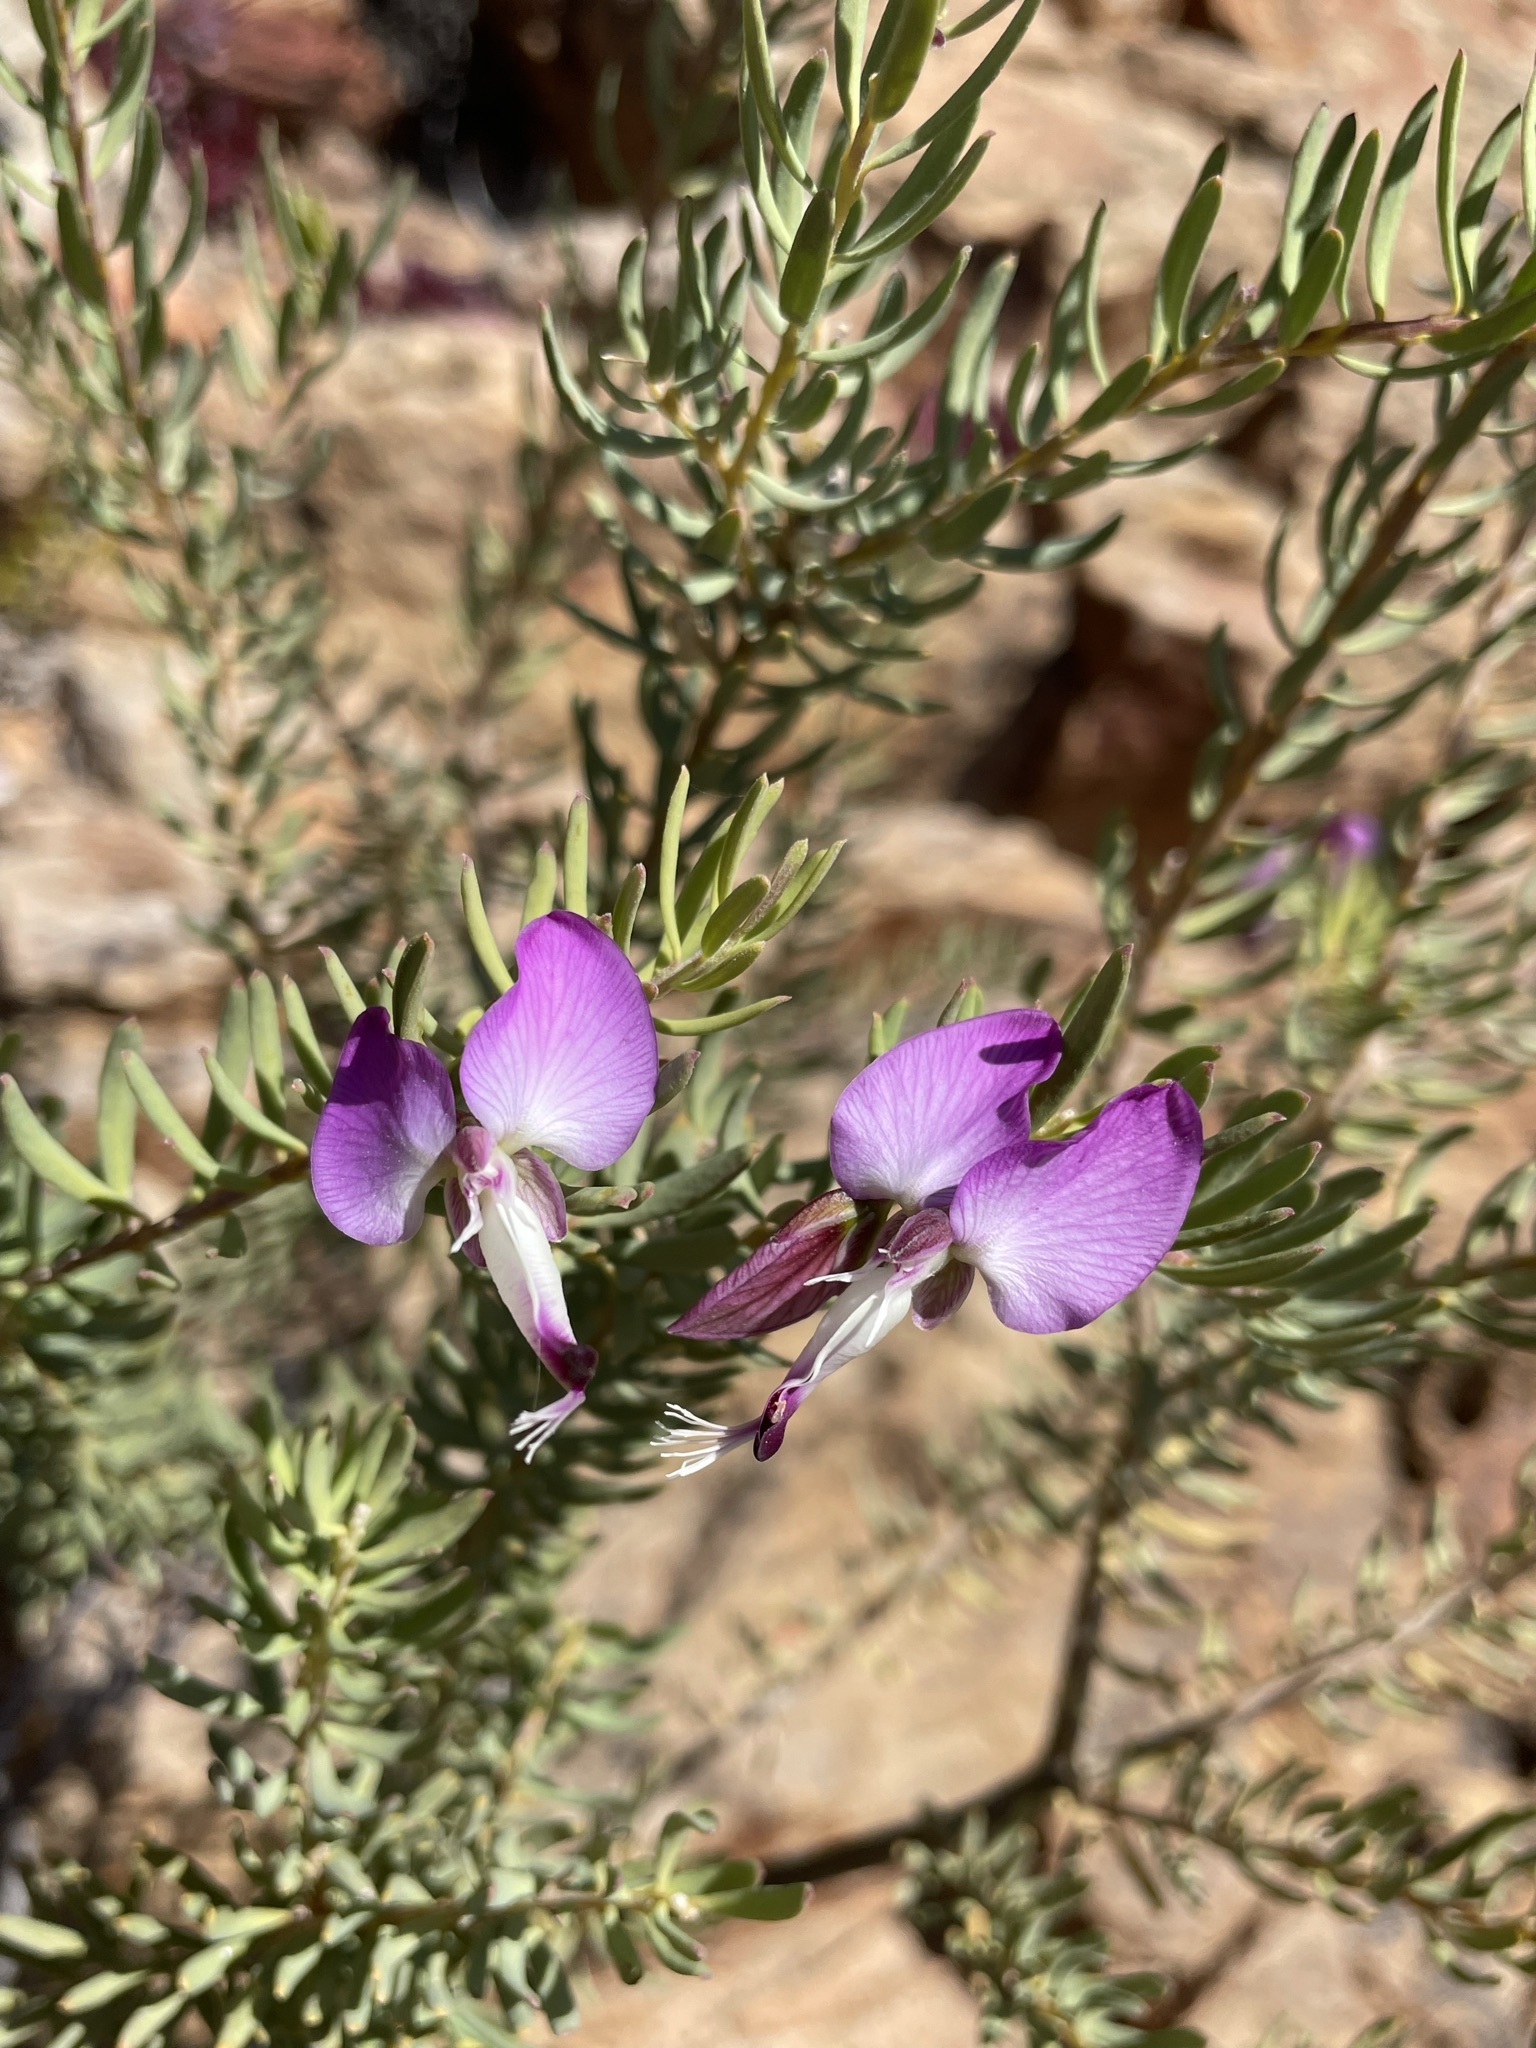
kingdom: Plantae
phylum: Tracheophyta
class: Magnoliopsida
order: Fabales
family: Polygalaceae
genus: Polygala
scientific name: Polygala myrtifolia
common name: Myrtle-leaf milkwort
